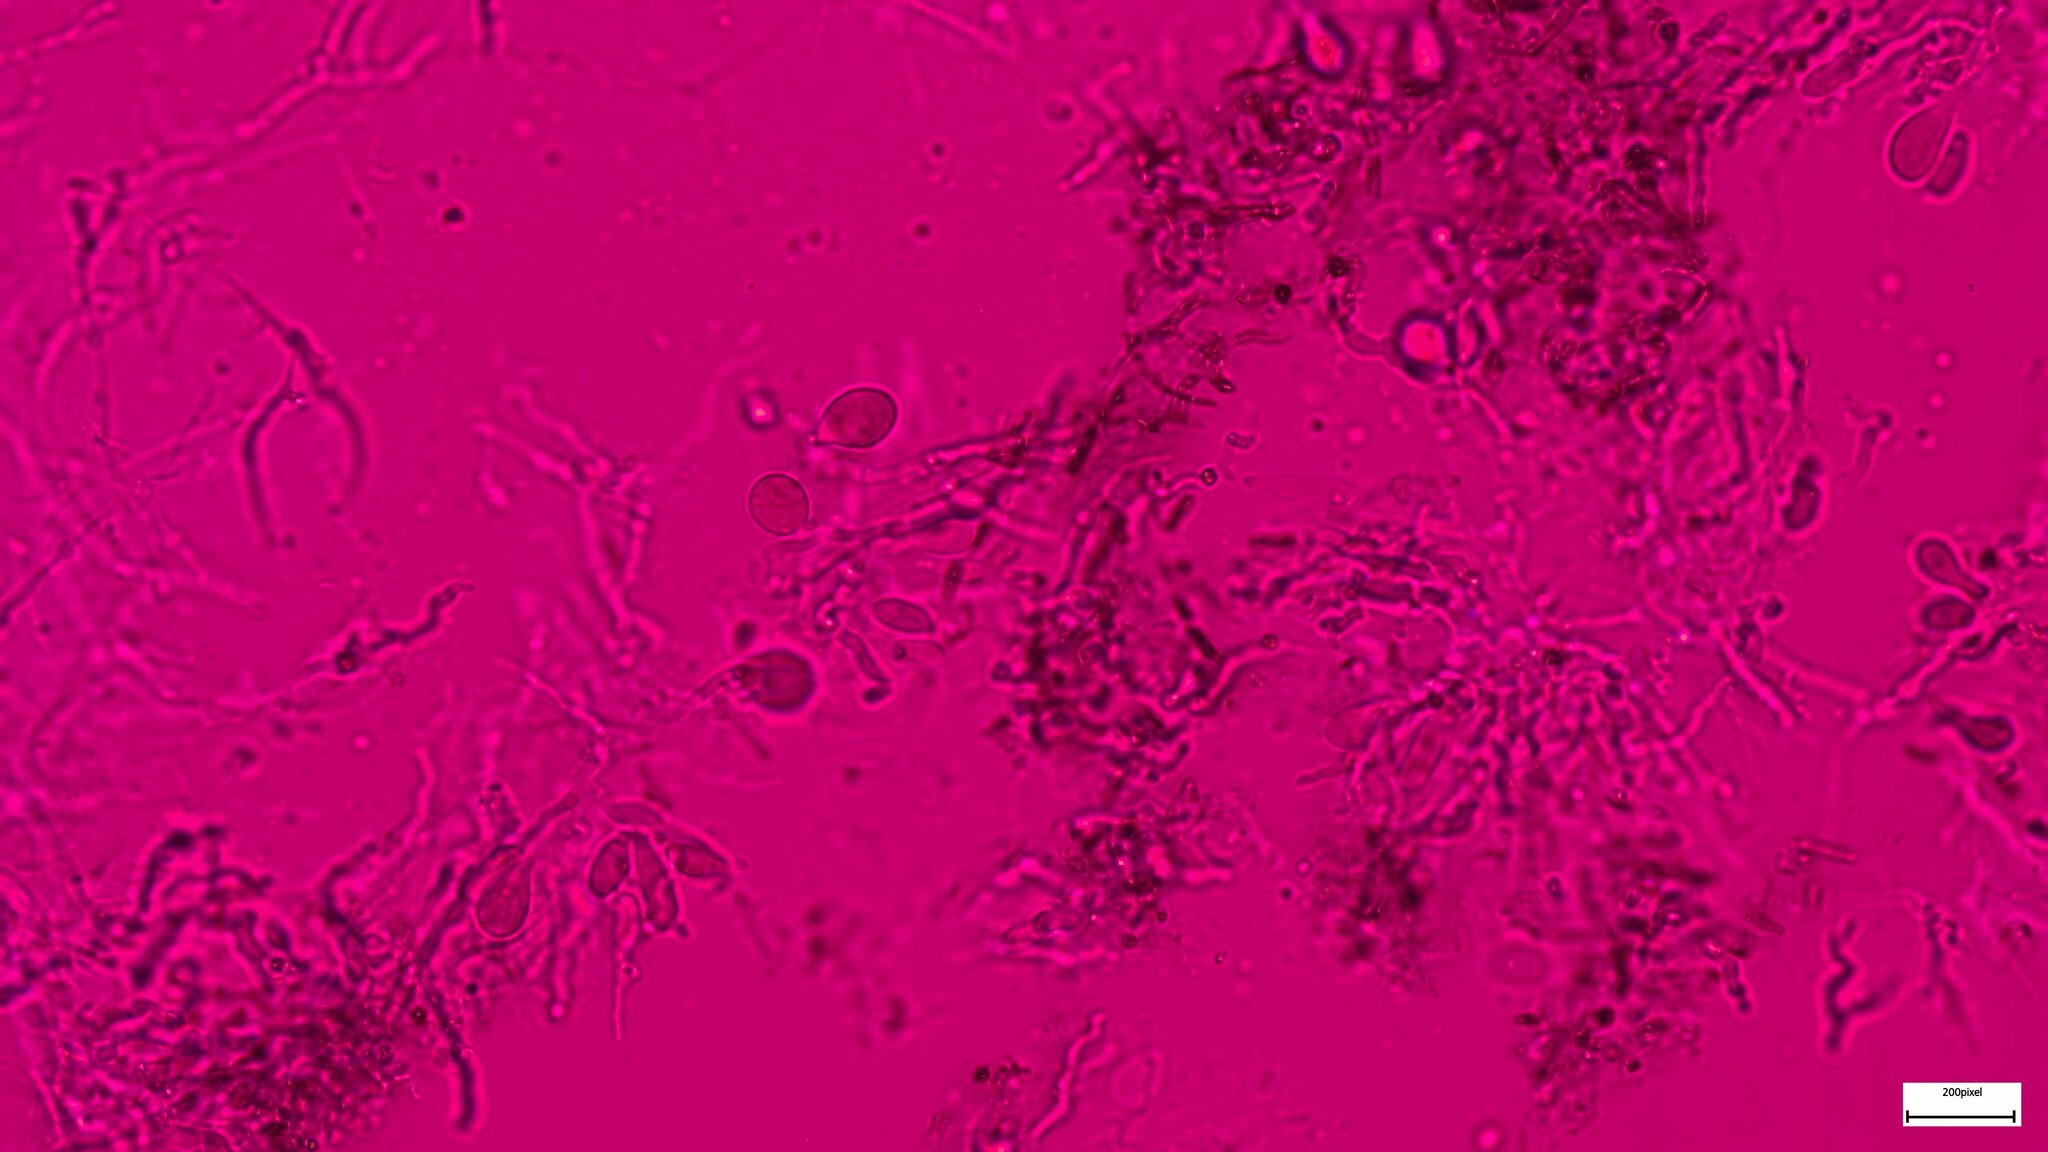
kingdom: Fungi
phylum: Basidiomycota
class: Agaricomycetes
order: Auriculariales
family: Auriculariaceae
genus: Exidia
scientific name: Exidia glandulosa
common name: Witches' butter
